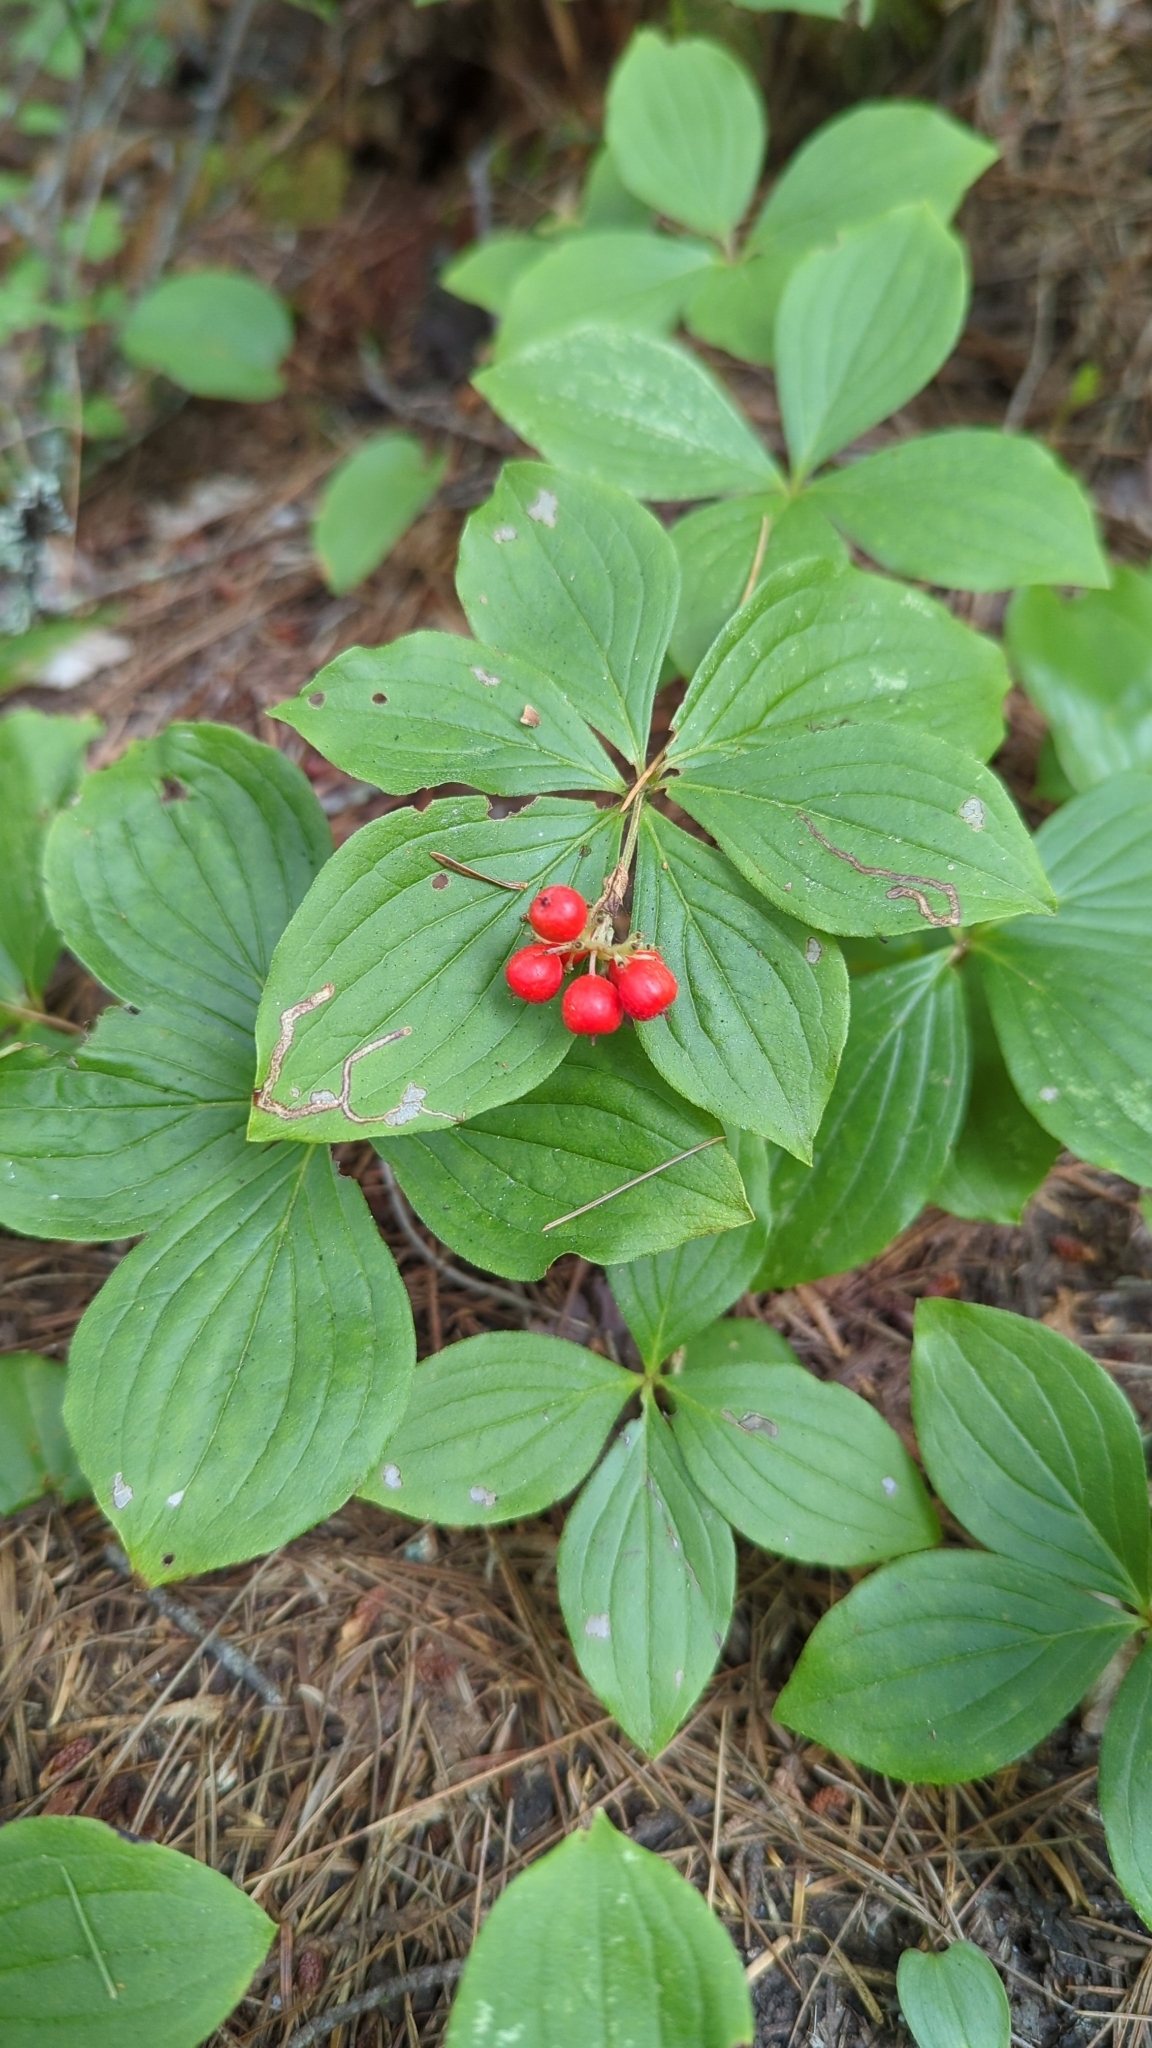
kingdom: Plantae
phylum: Tracheophyta
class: Magnoliopsida
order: Cornales
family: Cornaceae
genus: Cornus
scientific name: Cornus canadensis
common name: Creeping dogwood
